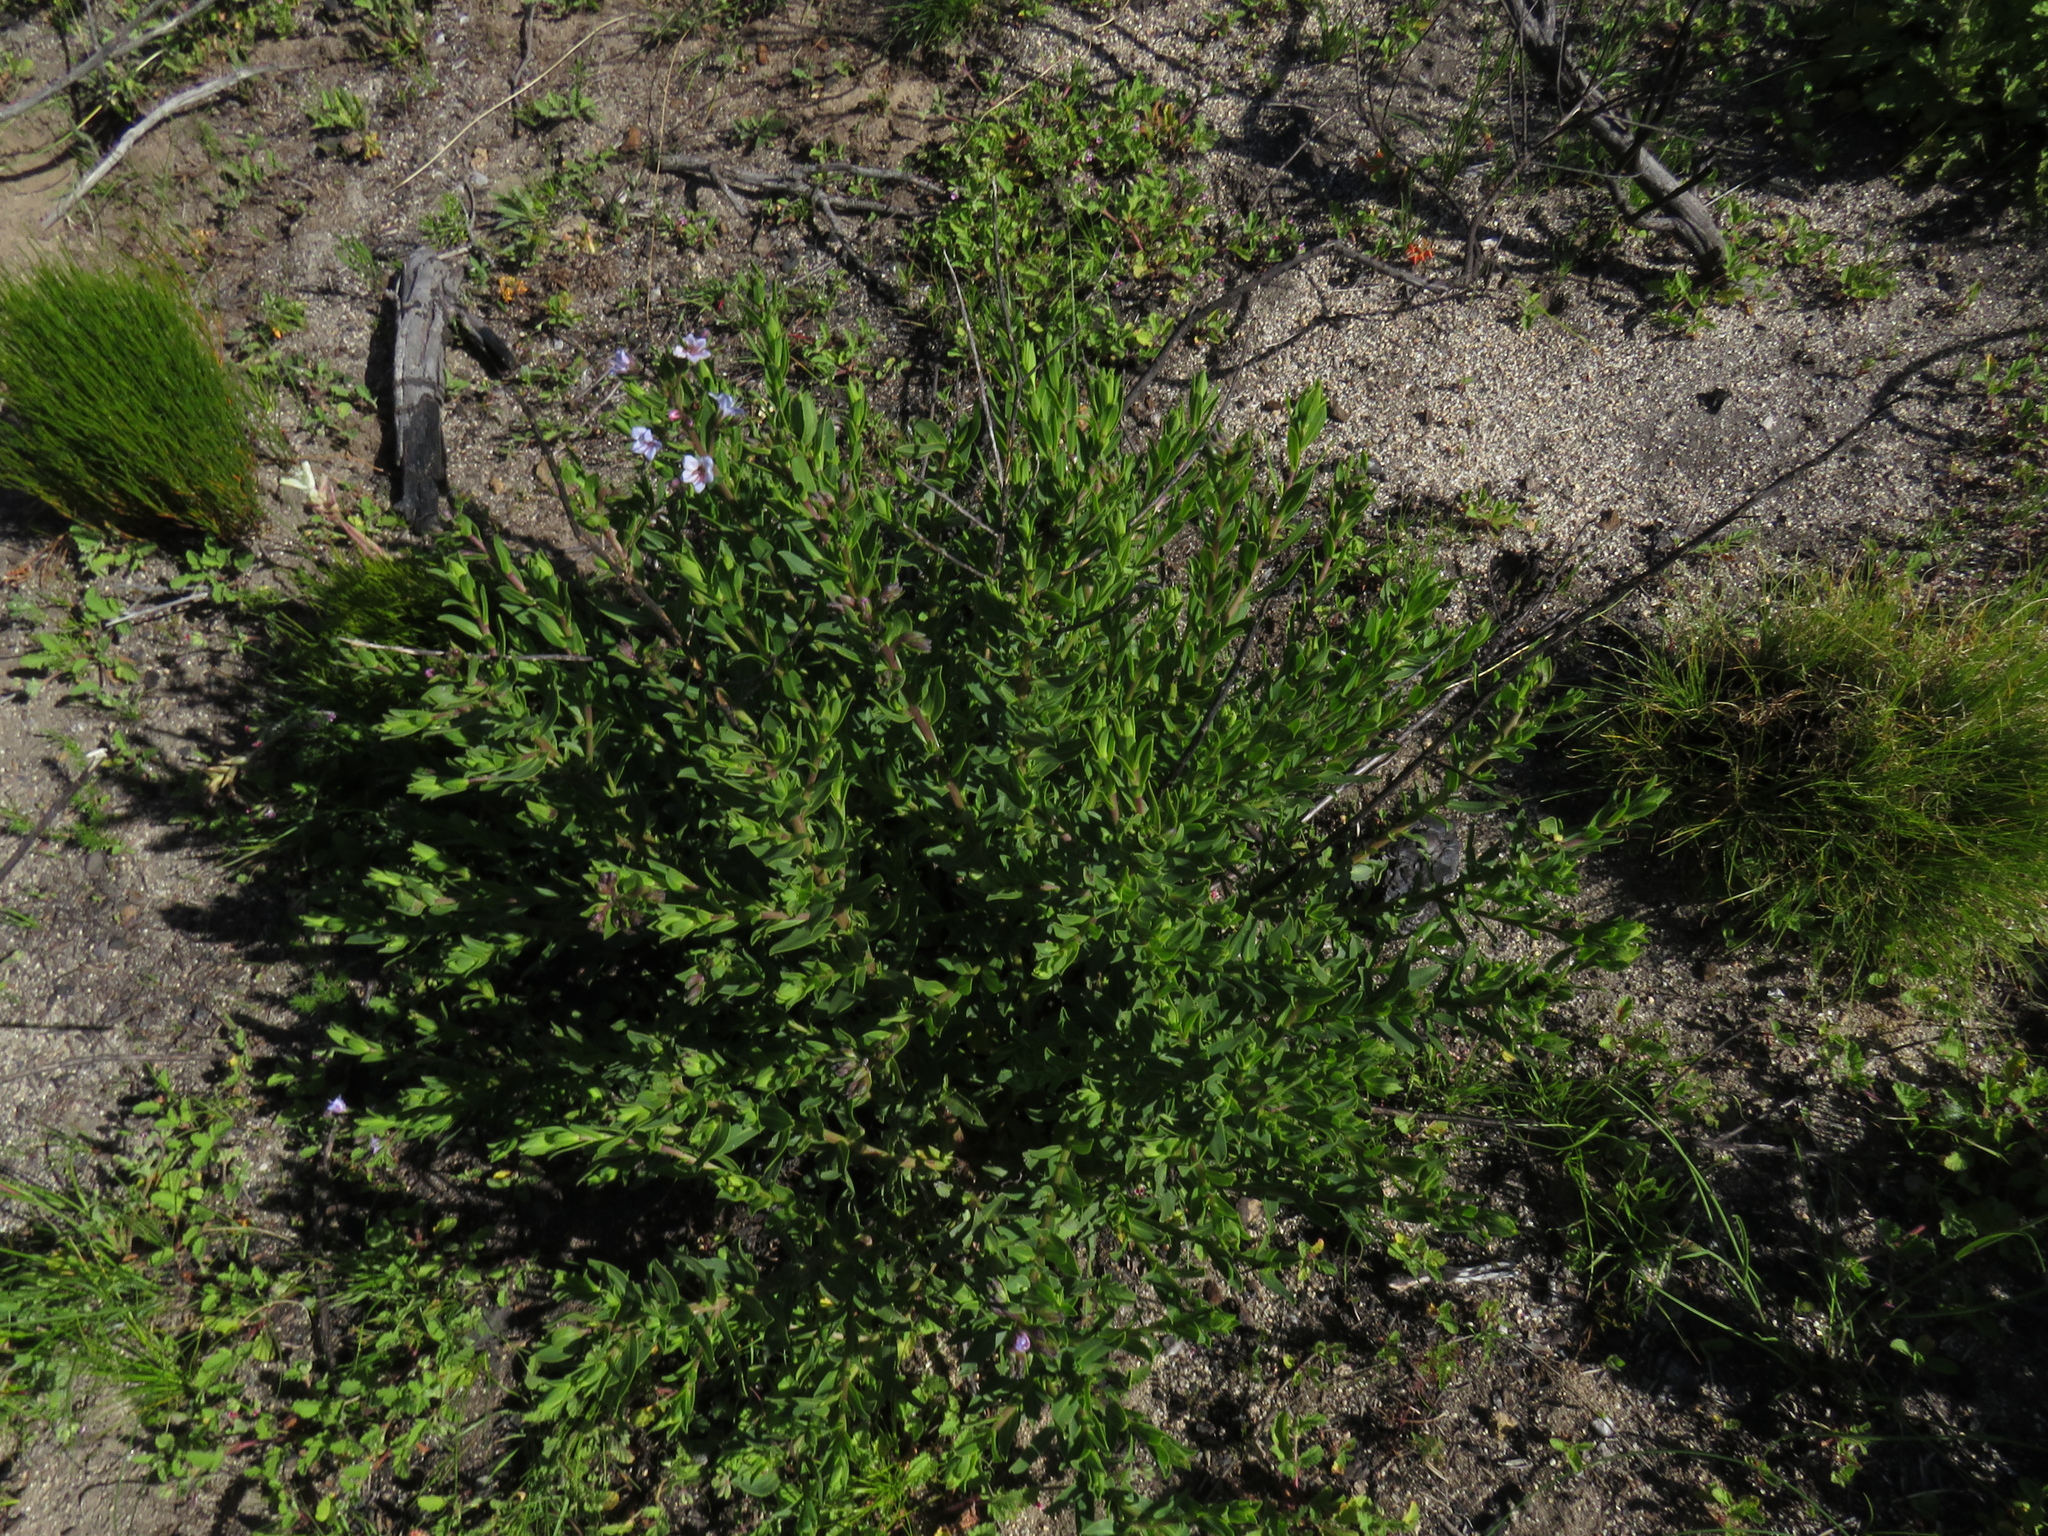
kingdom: Plantae
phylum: Tracheophyta
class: Magnoliopsida
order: Boraginales
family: Boraginaceae
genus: Lobostemon
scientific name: Lobostemon glaucophyllus
